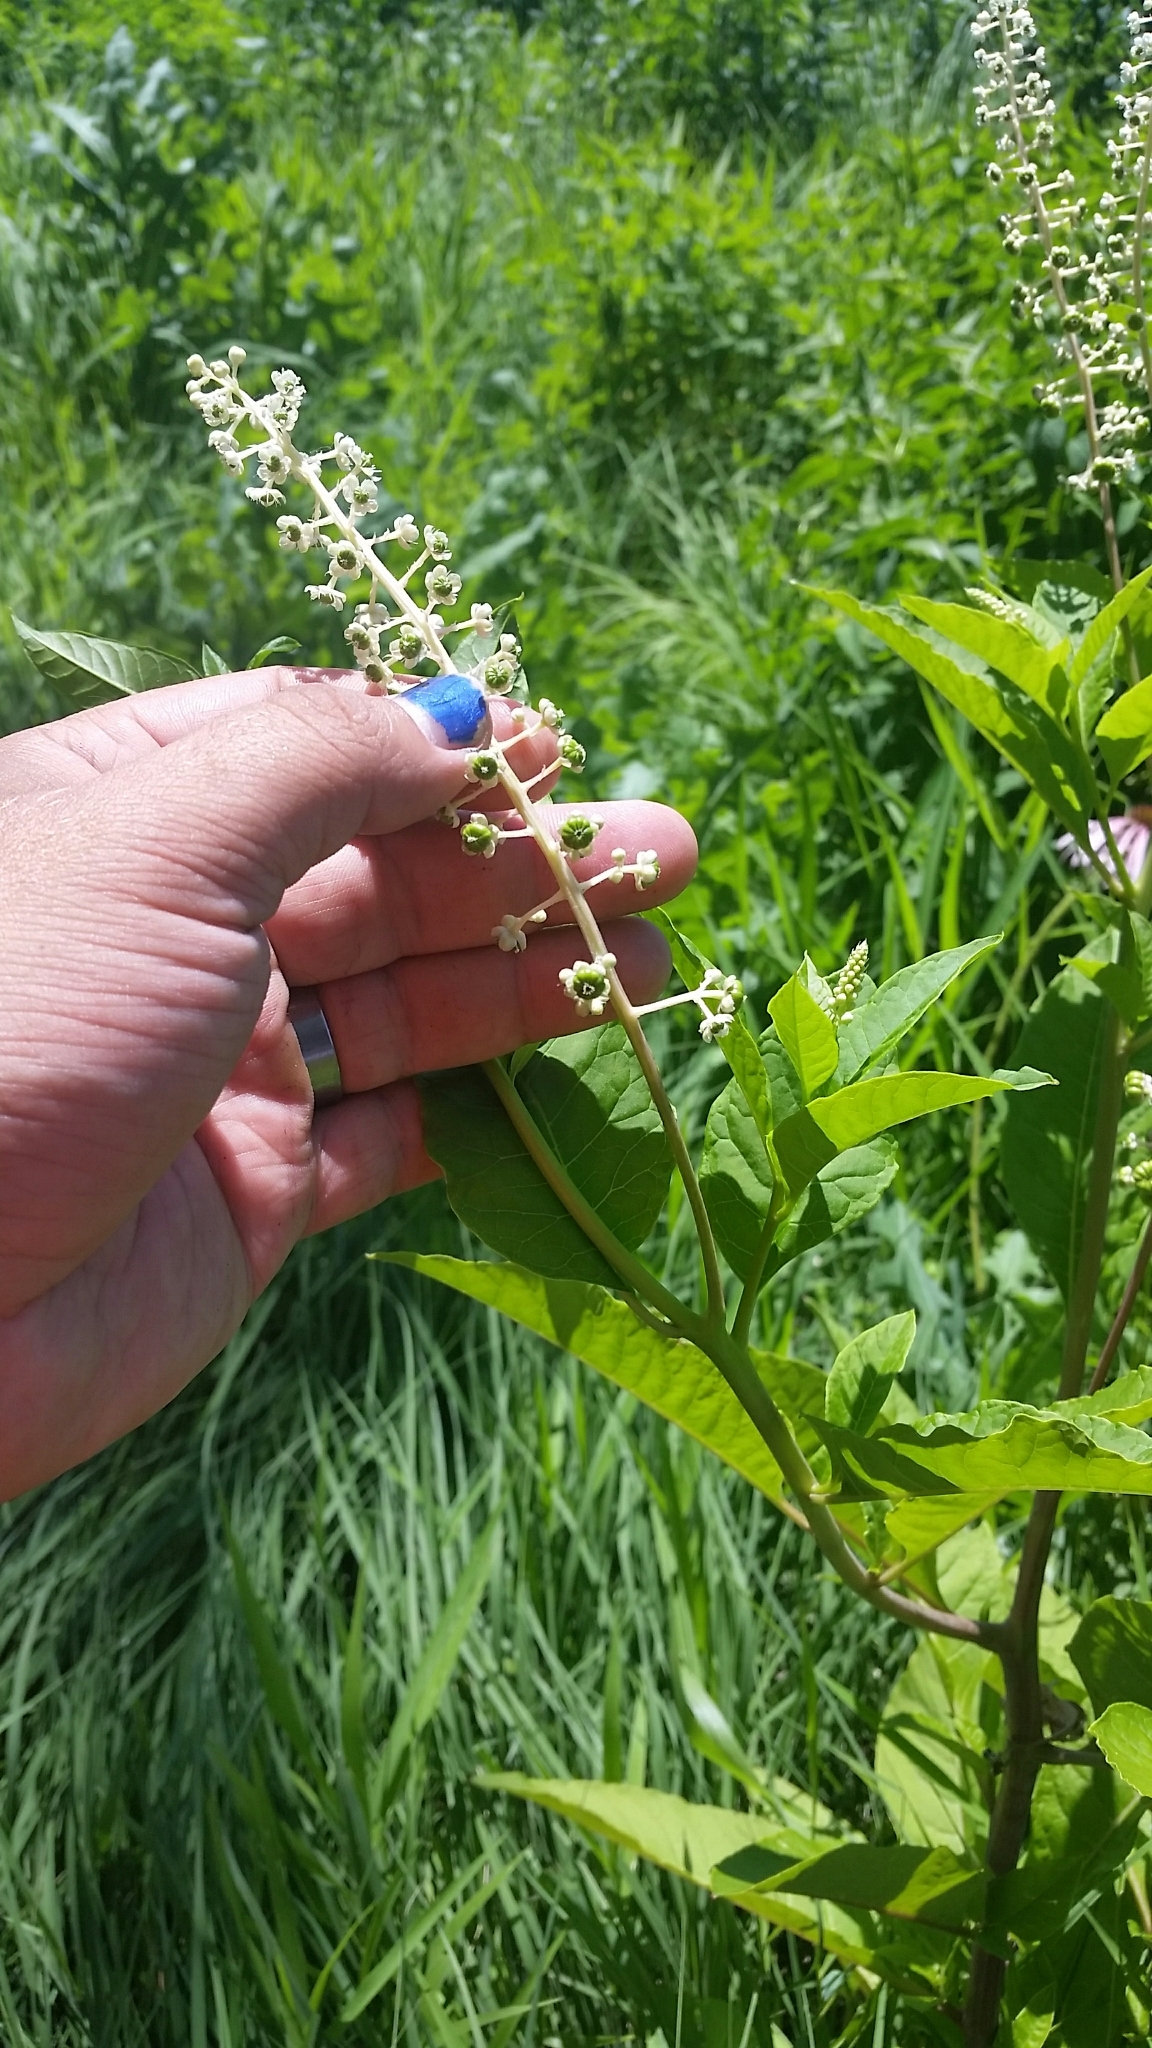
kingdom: Plantae
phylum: Tracheophyta
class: Magnoliopsida
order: Caryophyllales
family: Phytolaccaceae
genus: Phytolacca
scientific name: Phytolacca americana
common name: American pokeweed
